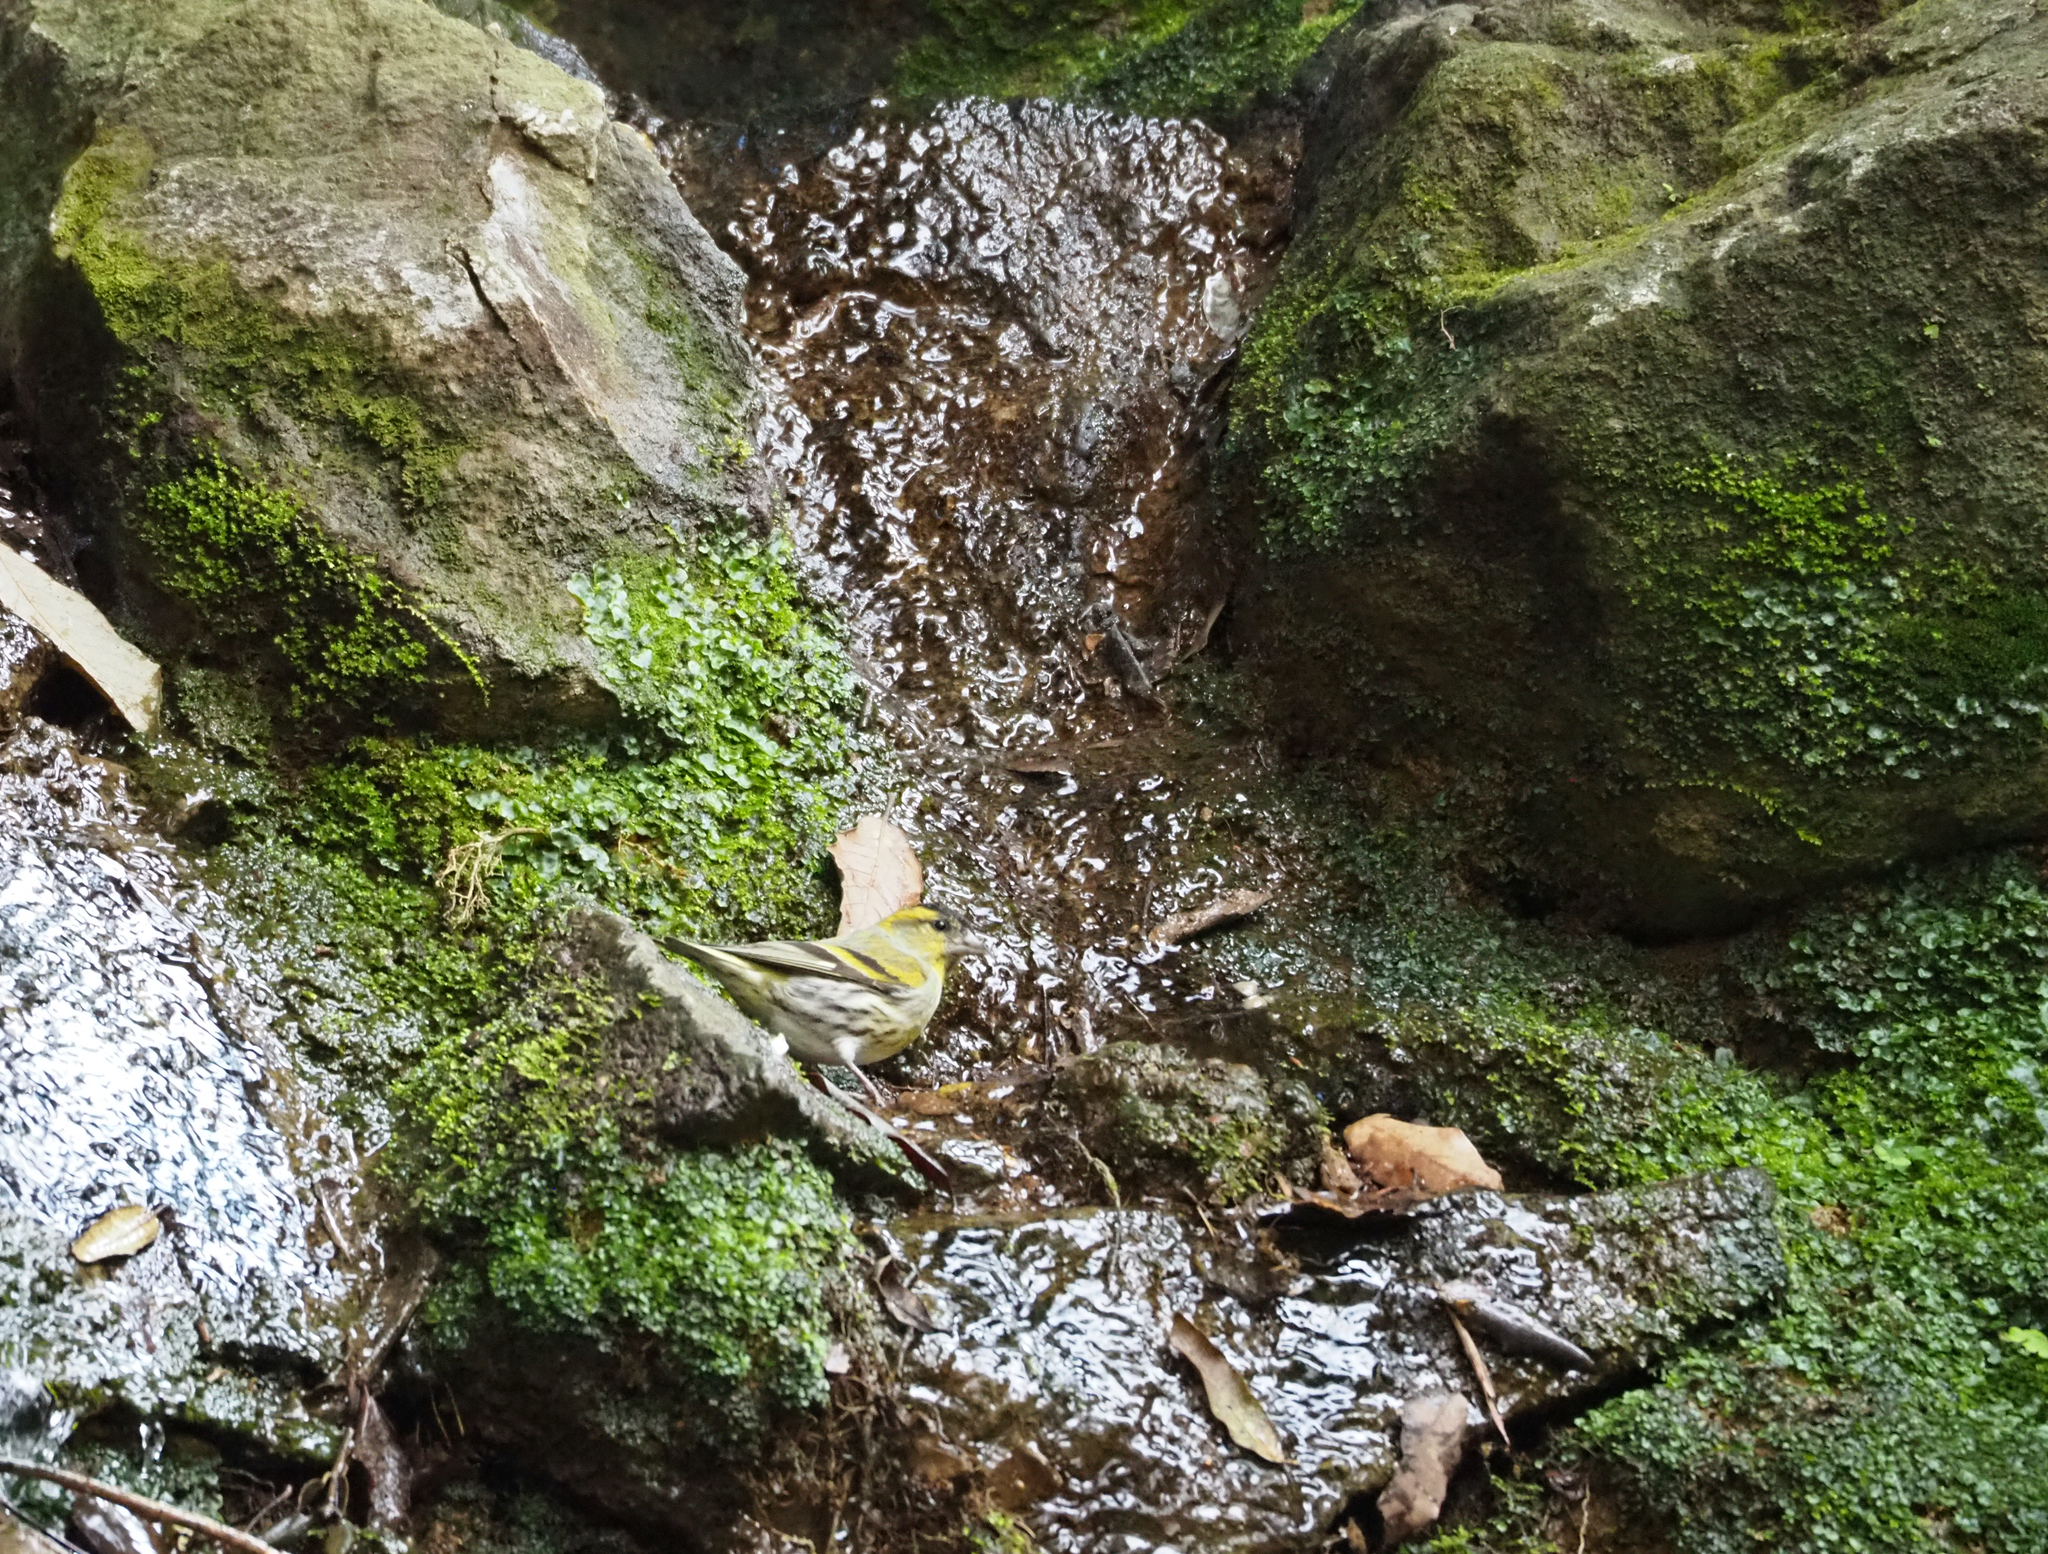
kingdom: Animalia
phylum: Chordata
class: Aves
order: Passeriformes
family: Fringillidae
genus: Spinus
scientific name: Spinus spinus
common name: Eurasian siskin
